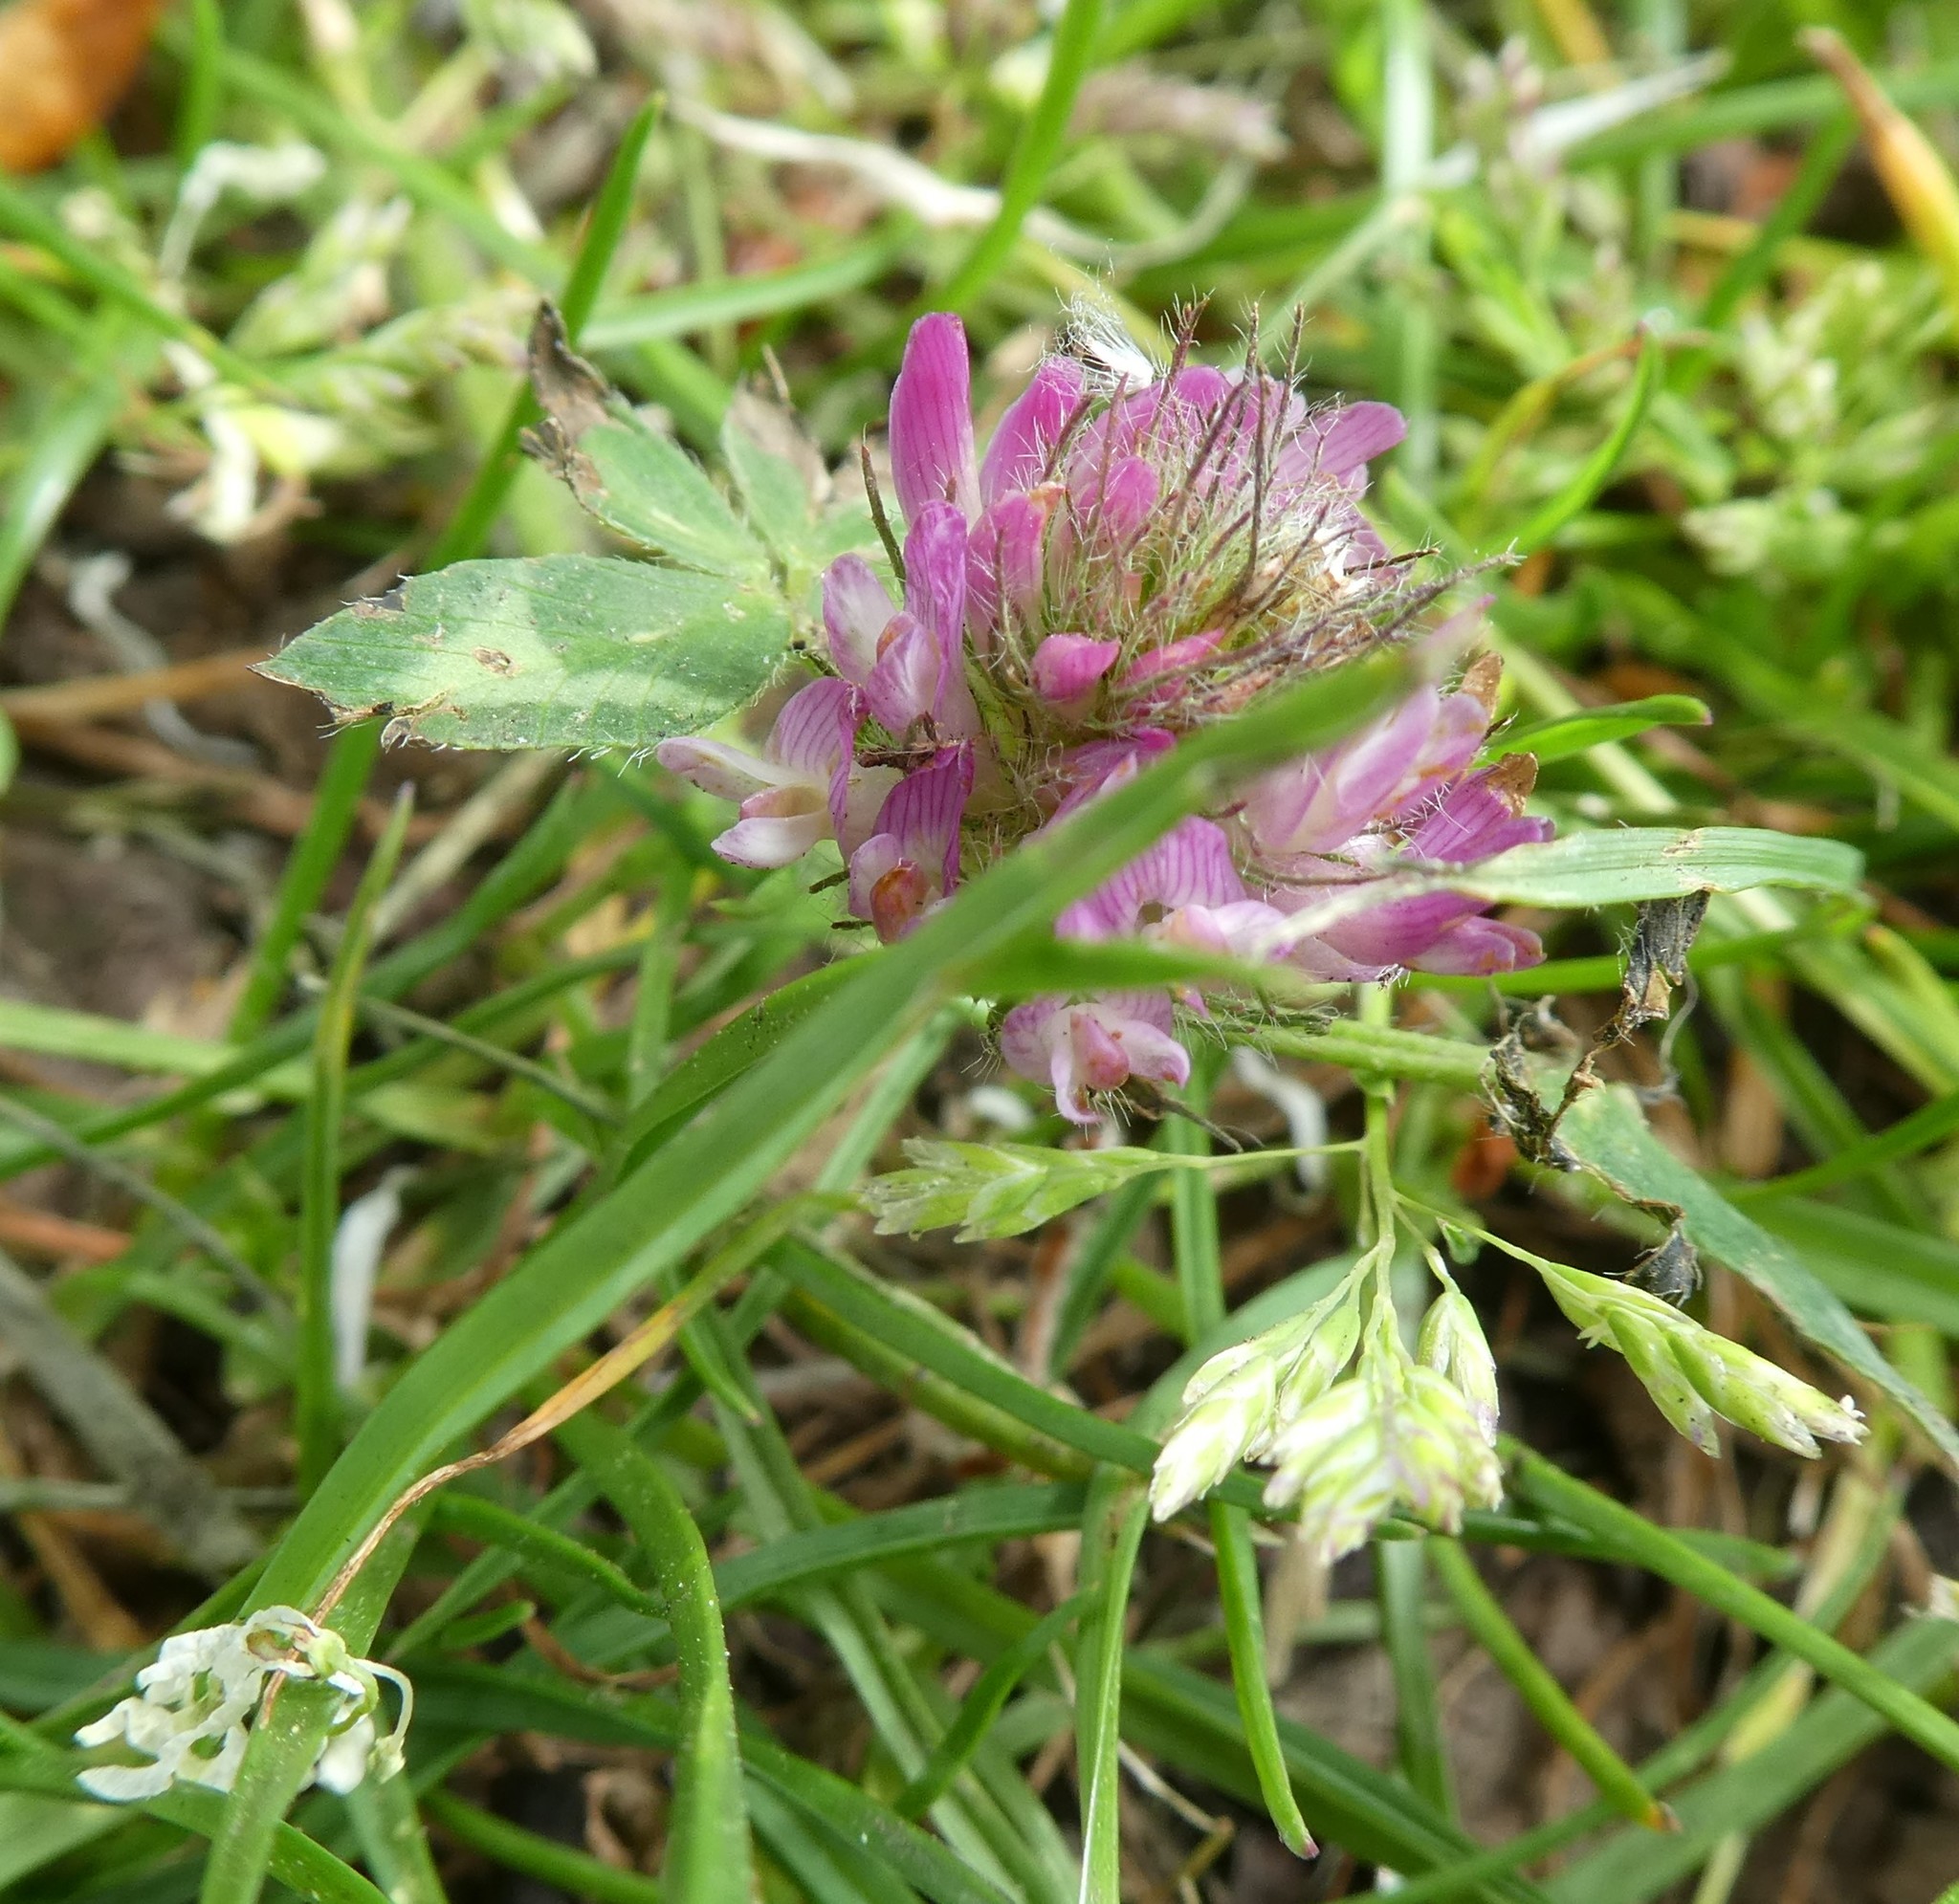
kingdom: Plantae
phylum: Tracheophyta
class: Magnoliopsida
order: Fabales
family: Fabaceae
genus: Trifolium
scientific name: Trifolium pratense
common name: Red clover
